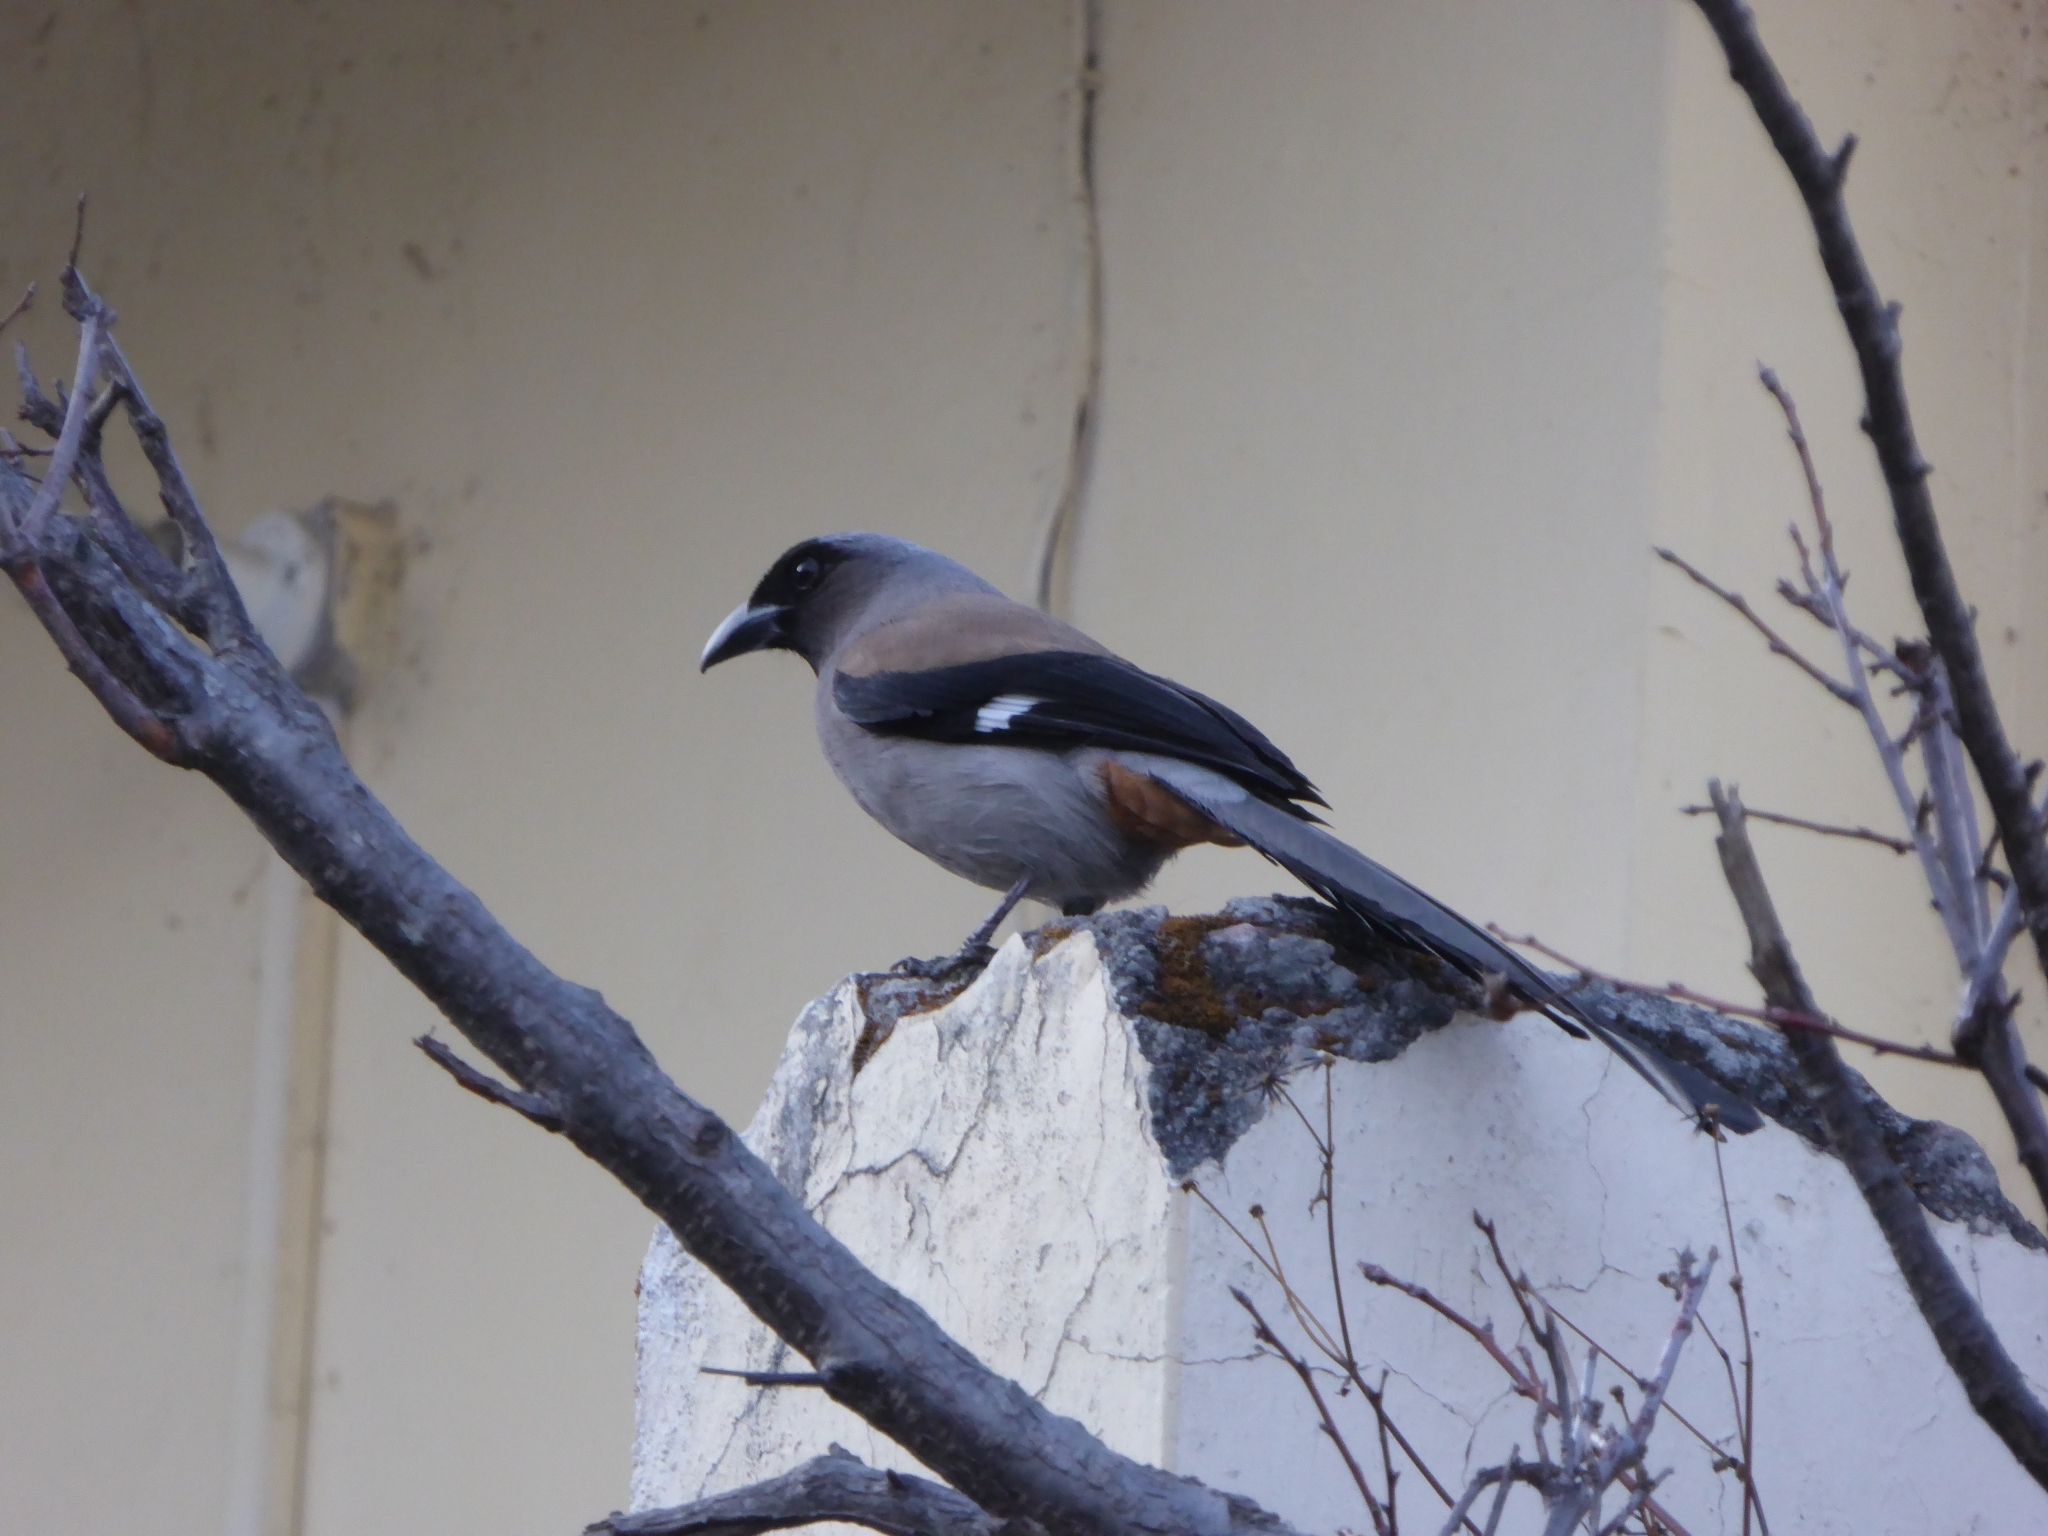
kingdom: Animalia
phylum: Chordata
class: Aves
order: Passeriformes
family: Corvidae
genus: Dendrocitta
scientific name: Dendrocitta formosae
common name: Grey treepie
